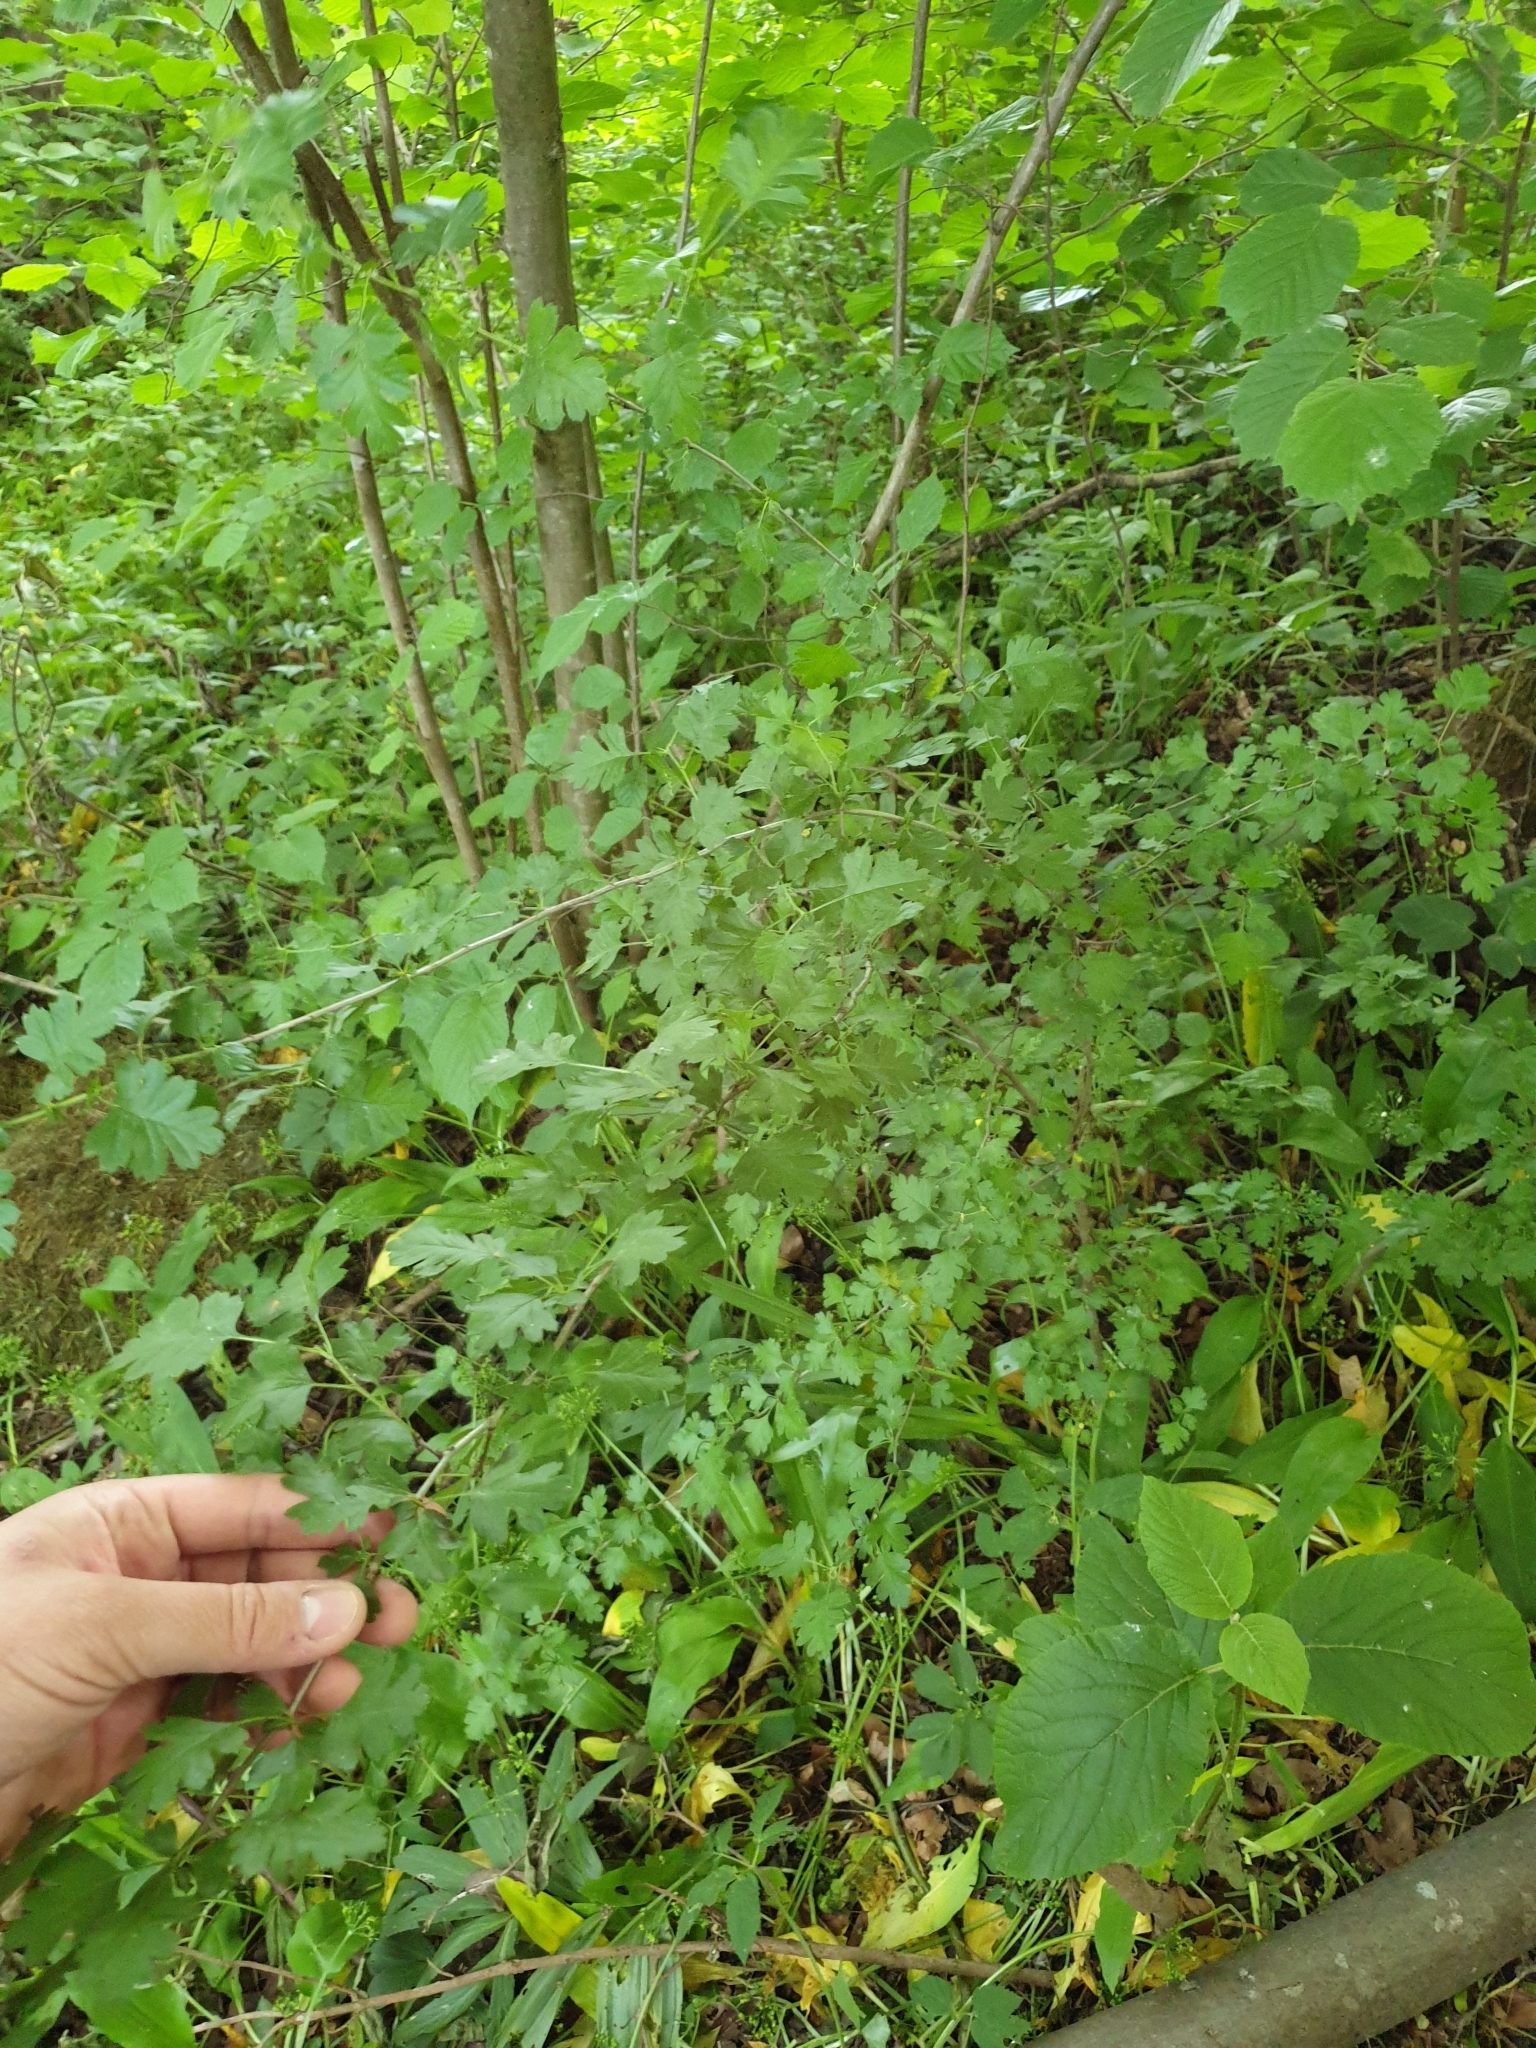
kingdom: Plantae
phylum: Tracheophyta
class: Magnoliopsida
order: Rosales
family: Rosaceae
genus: Crataegus
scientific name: Crataegus monogyna
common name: Hawthorn
